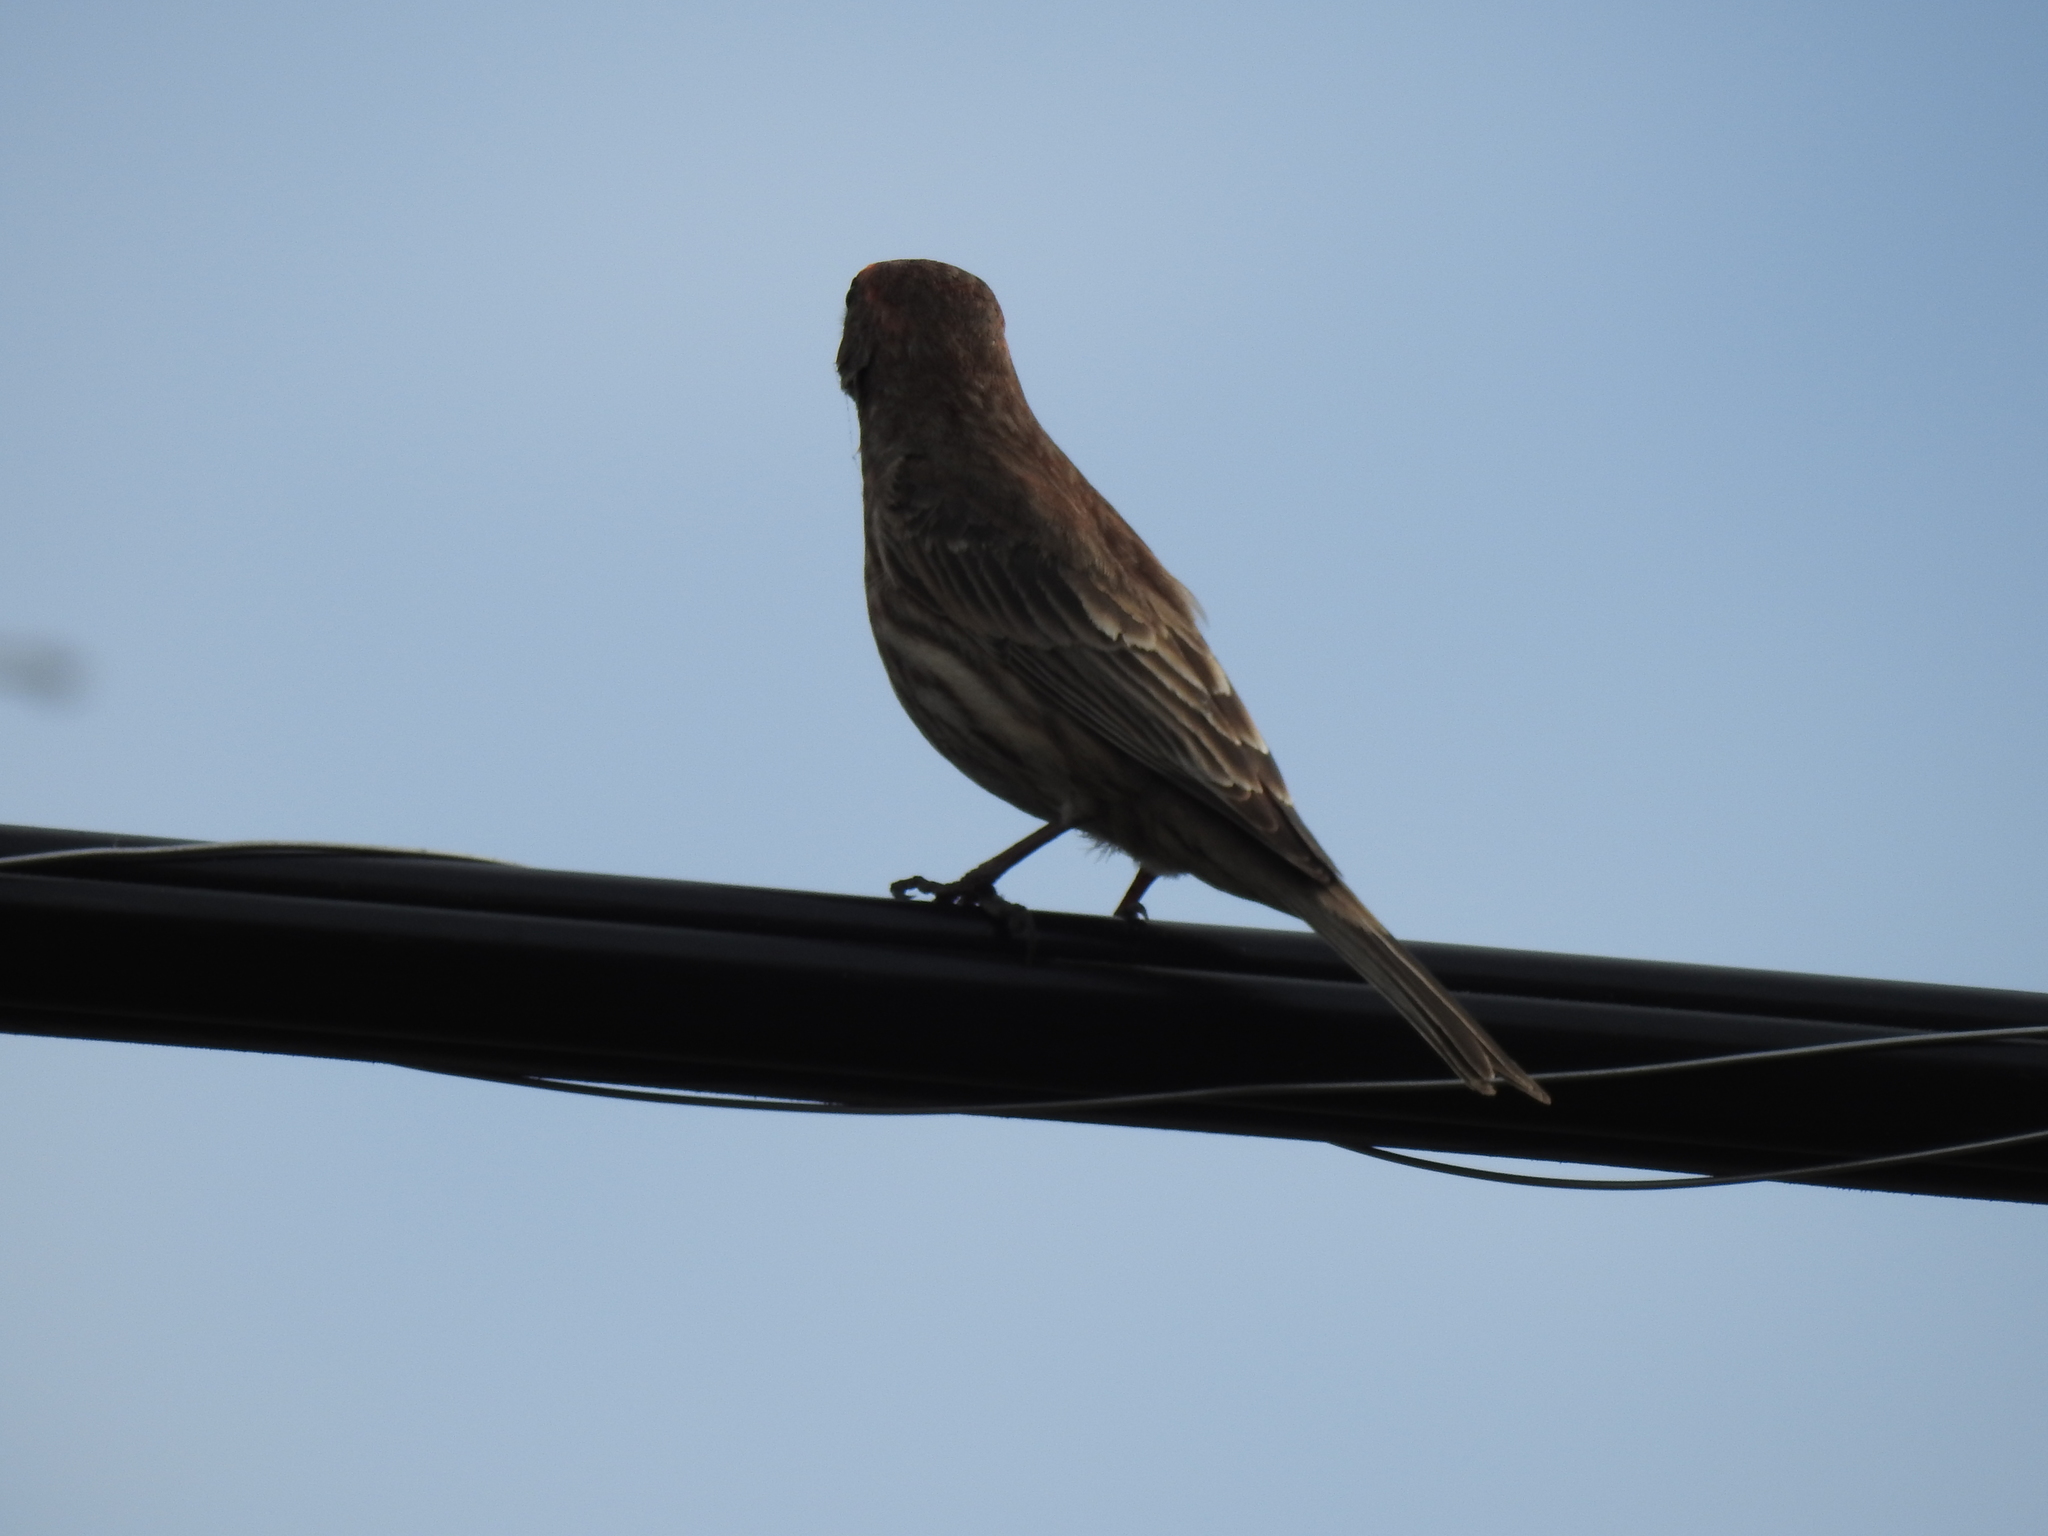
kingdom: Animalia
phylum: Chordata
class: Aves
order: Passeriformes
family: Fringillidae
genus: Haemorhous
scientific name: Haemorhous mexicanus
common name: House finch
